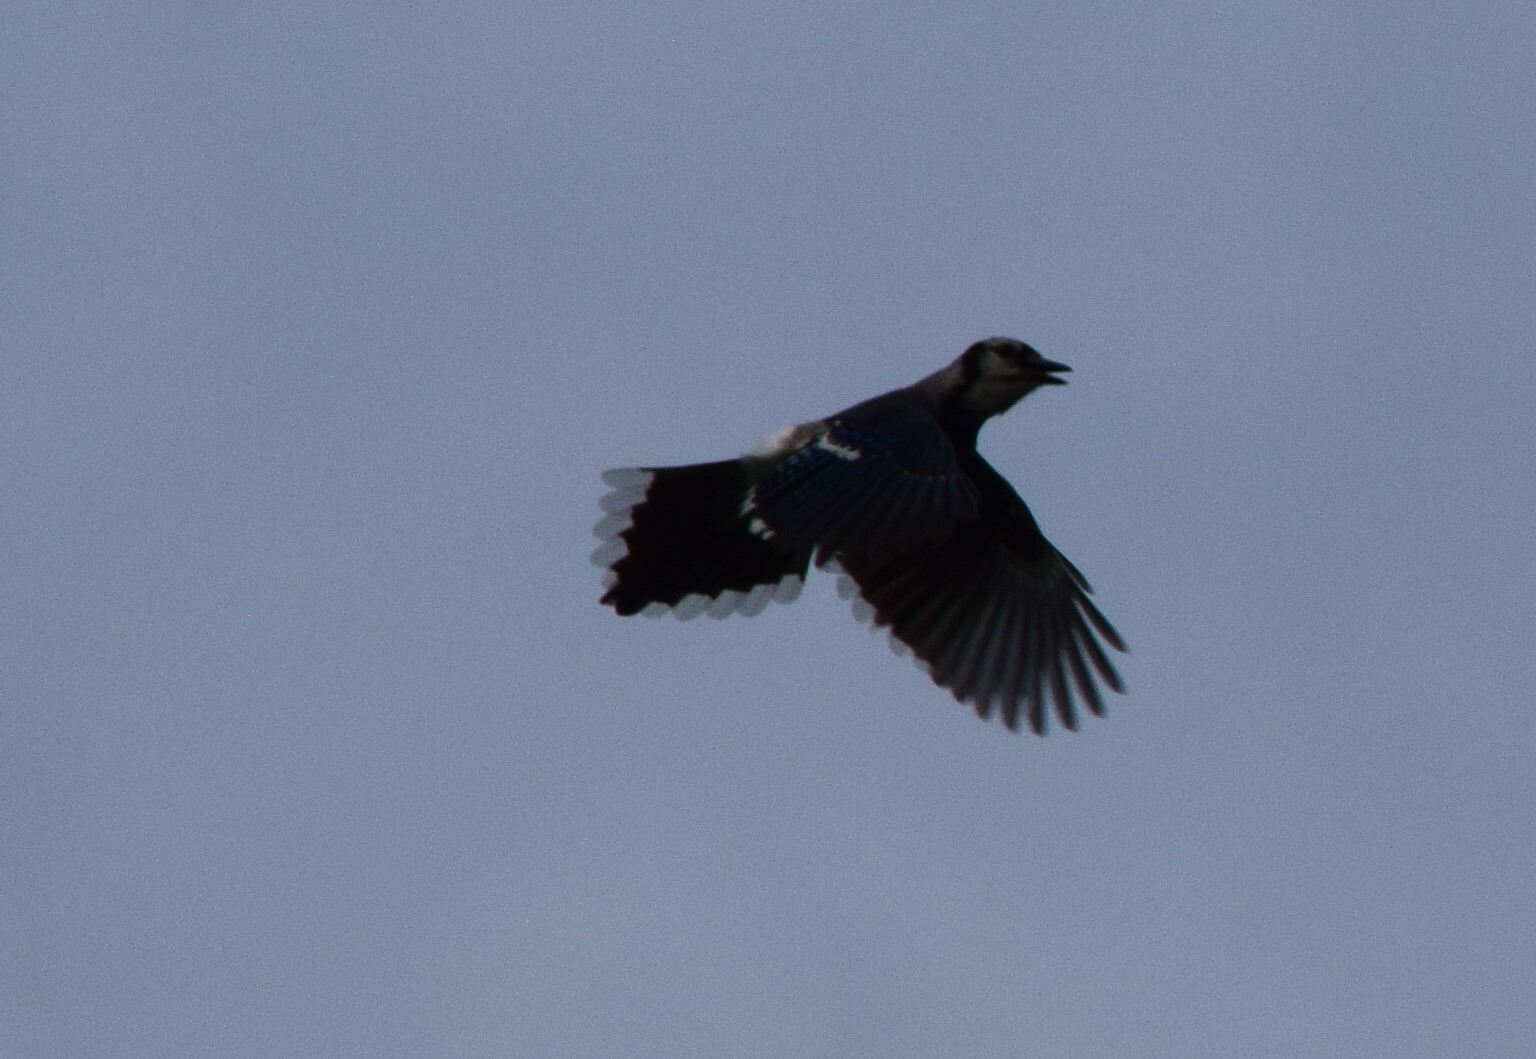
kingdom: Animalia
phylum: Chordata
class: Aves
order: Passeriformes
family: Corvidae
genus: Cyanocitta
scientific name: Cyanocitta cristata
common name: Blue jay
